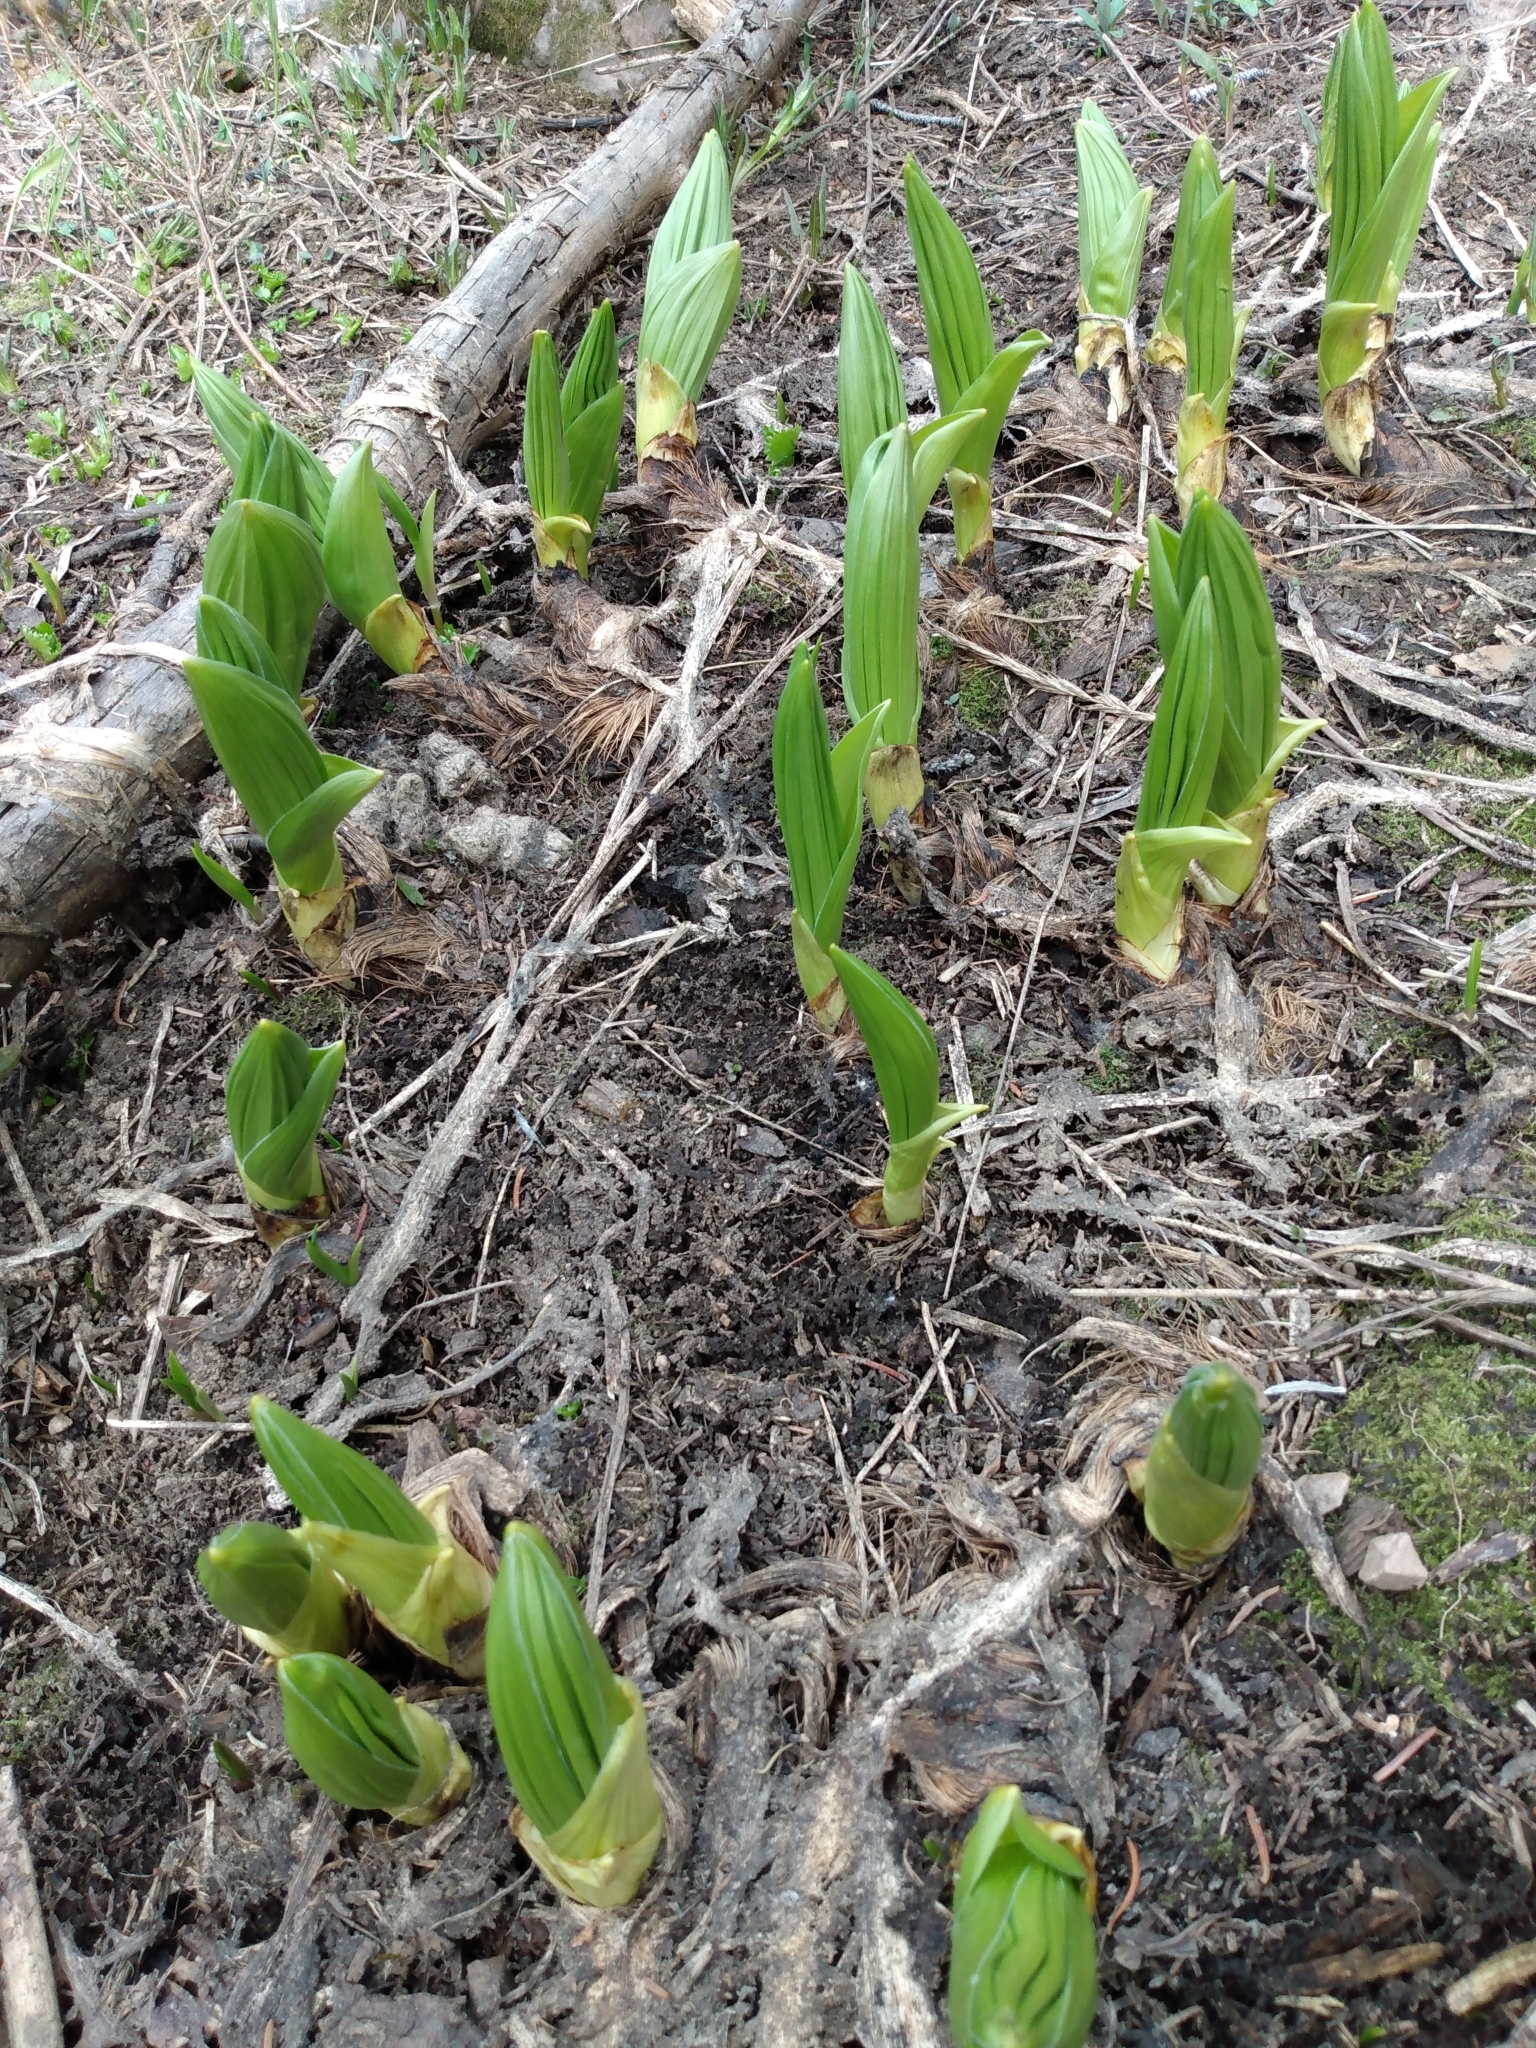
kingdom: Plantae
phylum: Tracheophyta
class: Liliopsida
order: Liliales
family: Melanthiaceae
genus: Veratrum
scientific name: Veratrum californicum
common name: California veratrum
